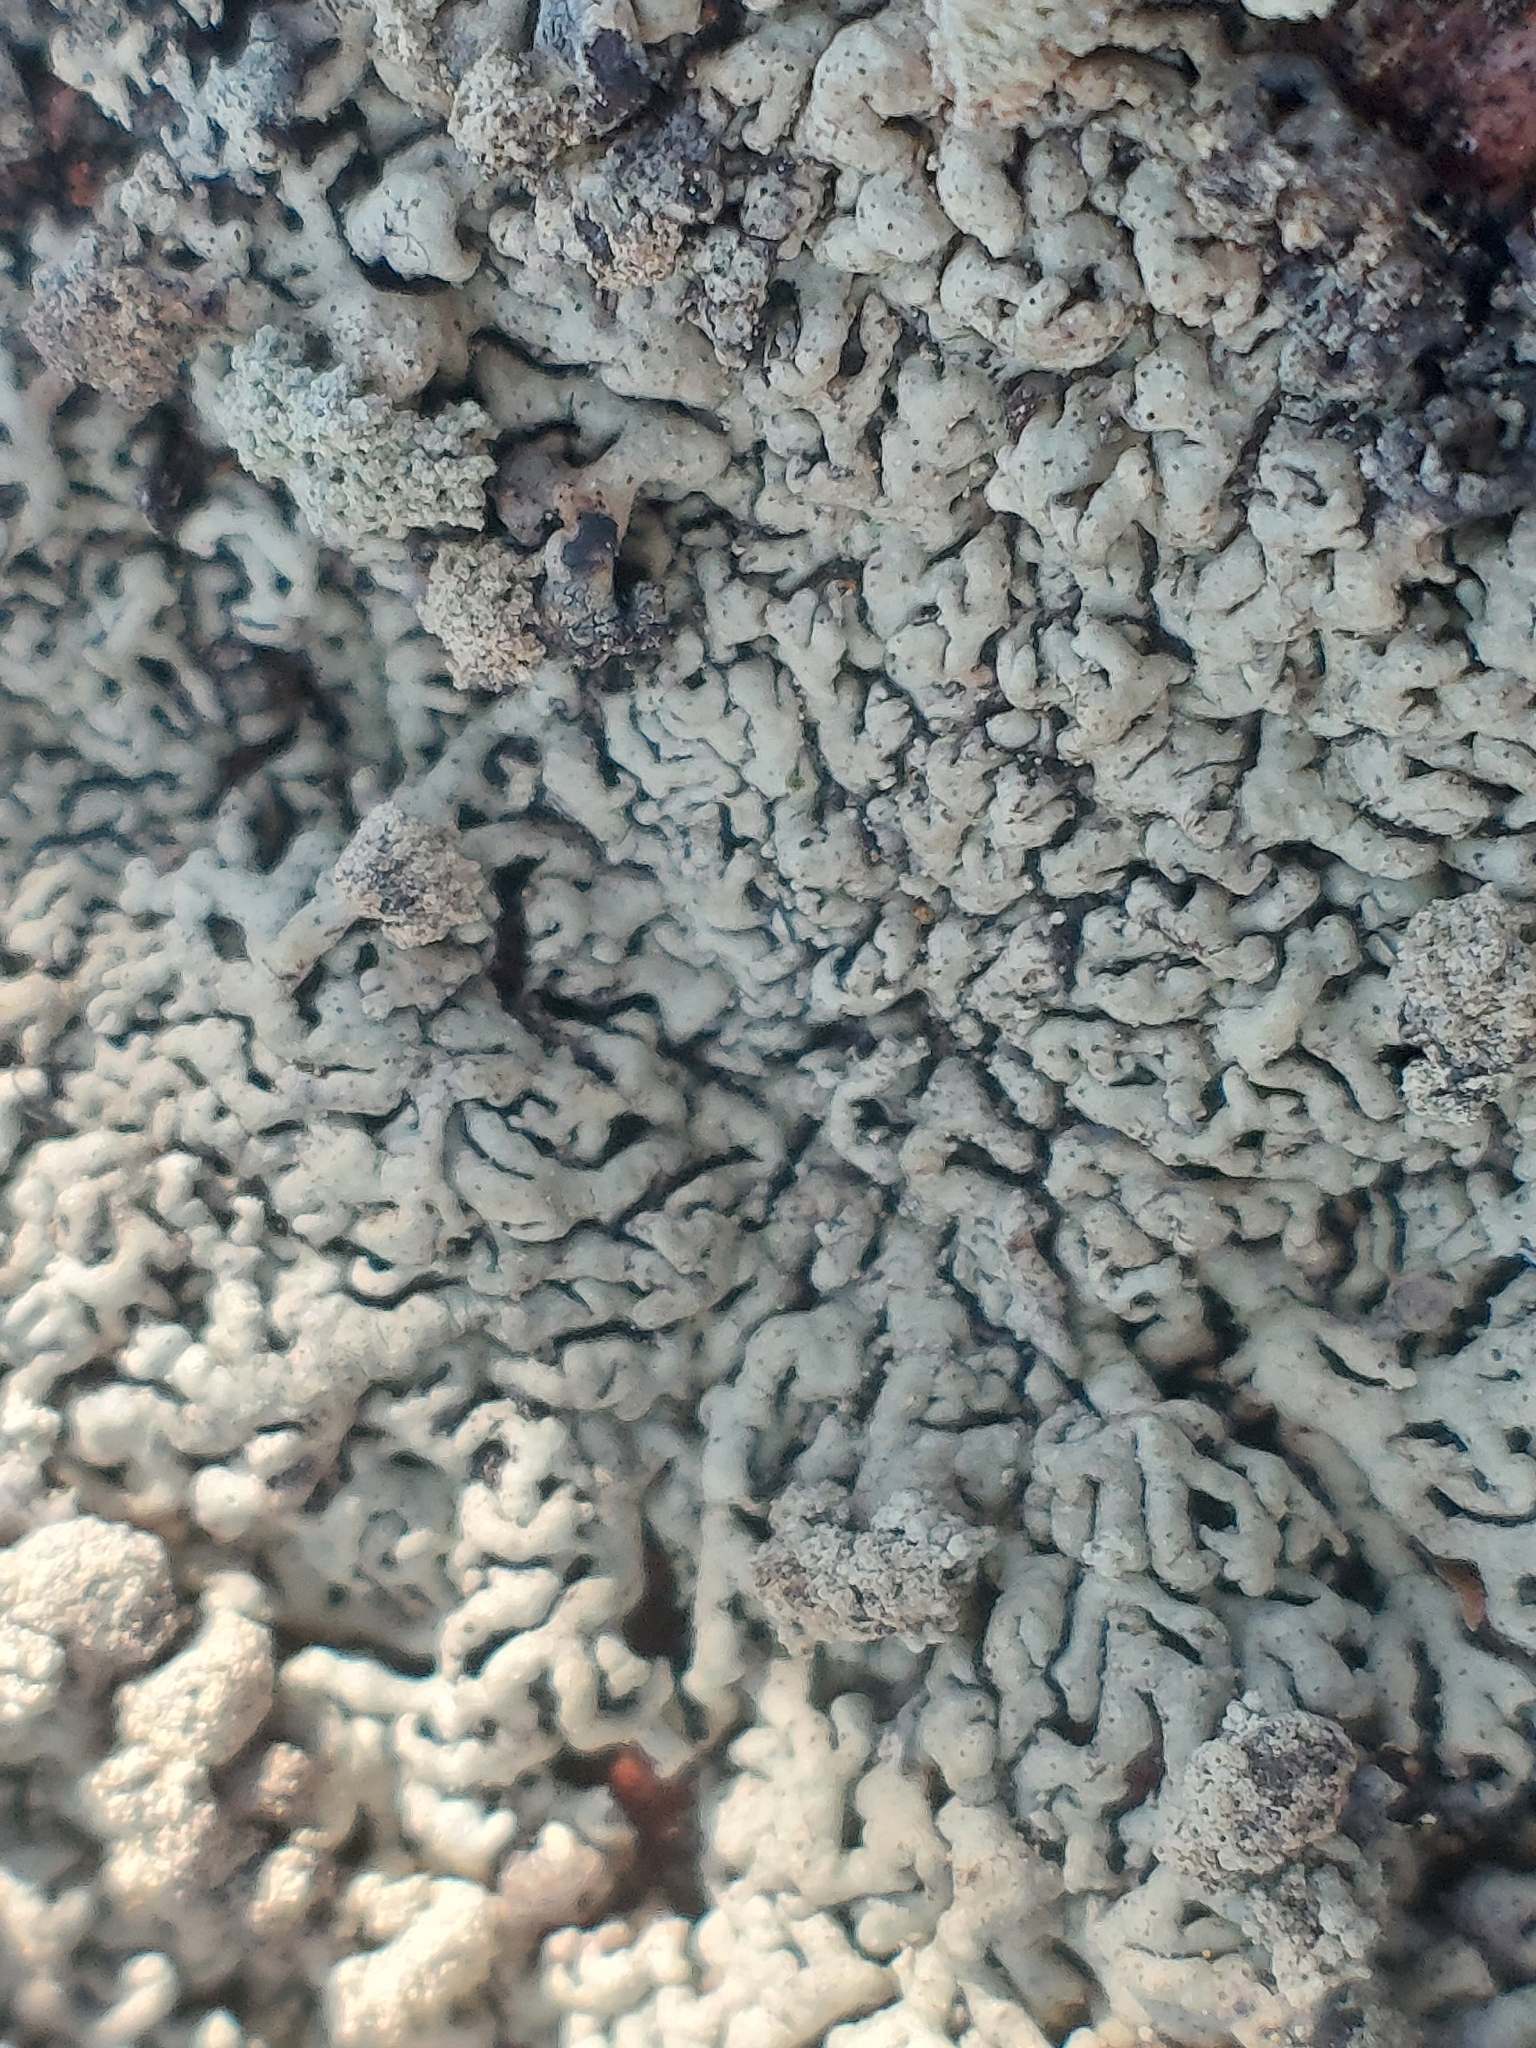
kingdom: Fungi
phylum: Ascomycota
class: Lecanoromycetes
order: Lecanorales
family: Parmeliaceae
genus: Arctoparmelia
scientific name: Arctoparmelia incurva
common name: Bent ring lichen
